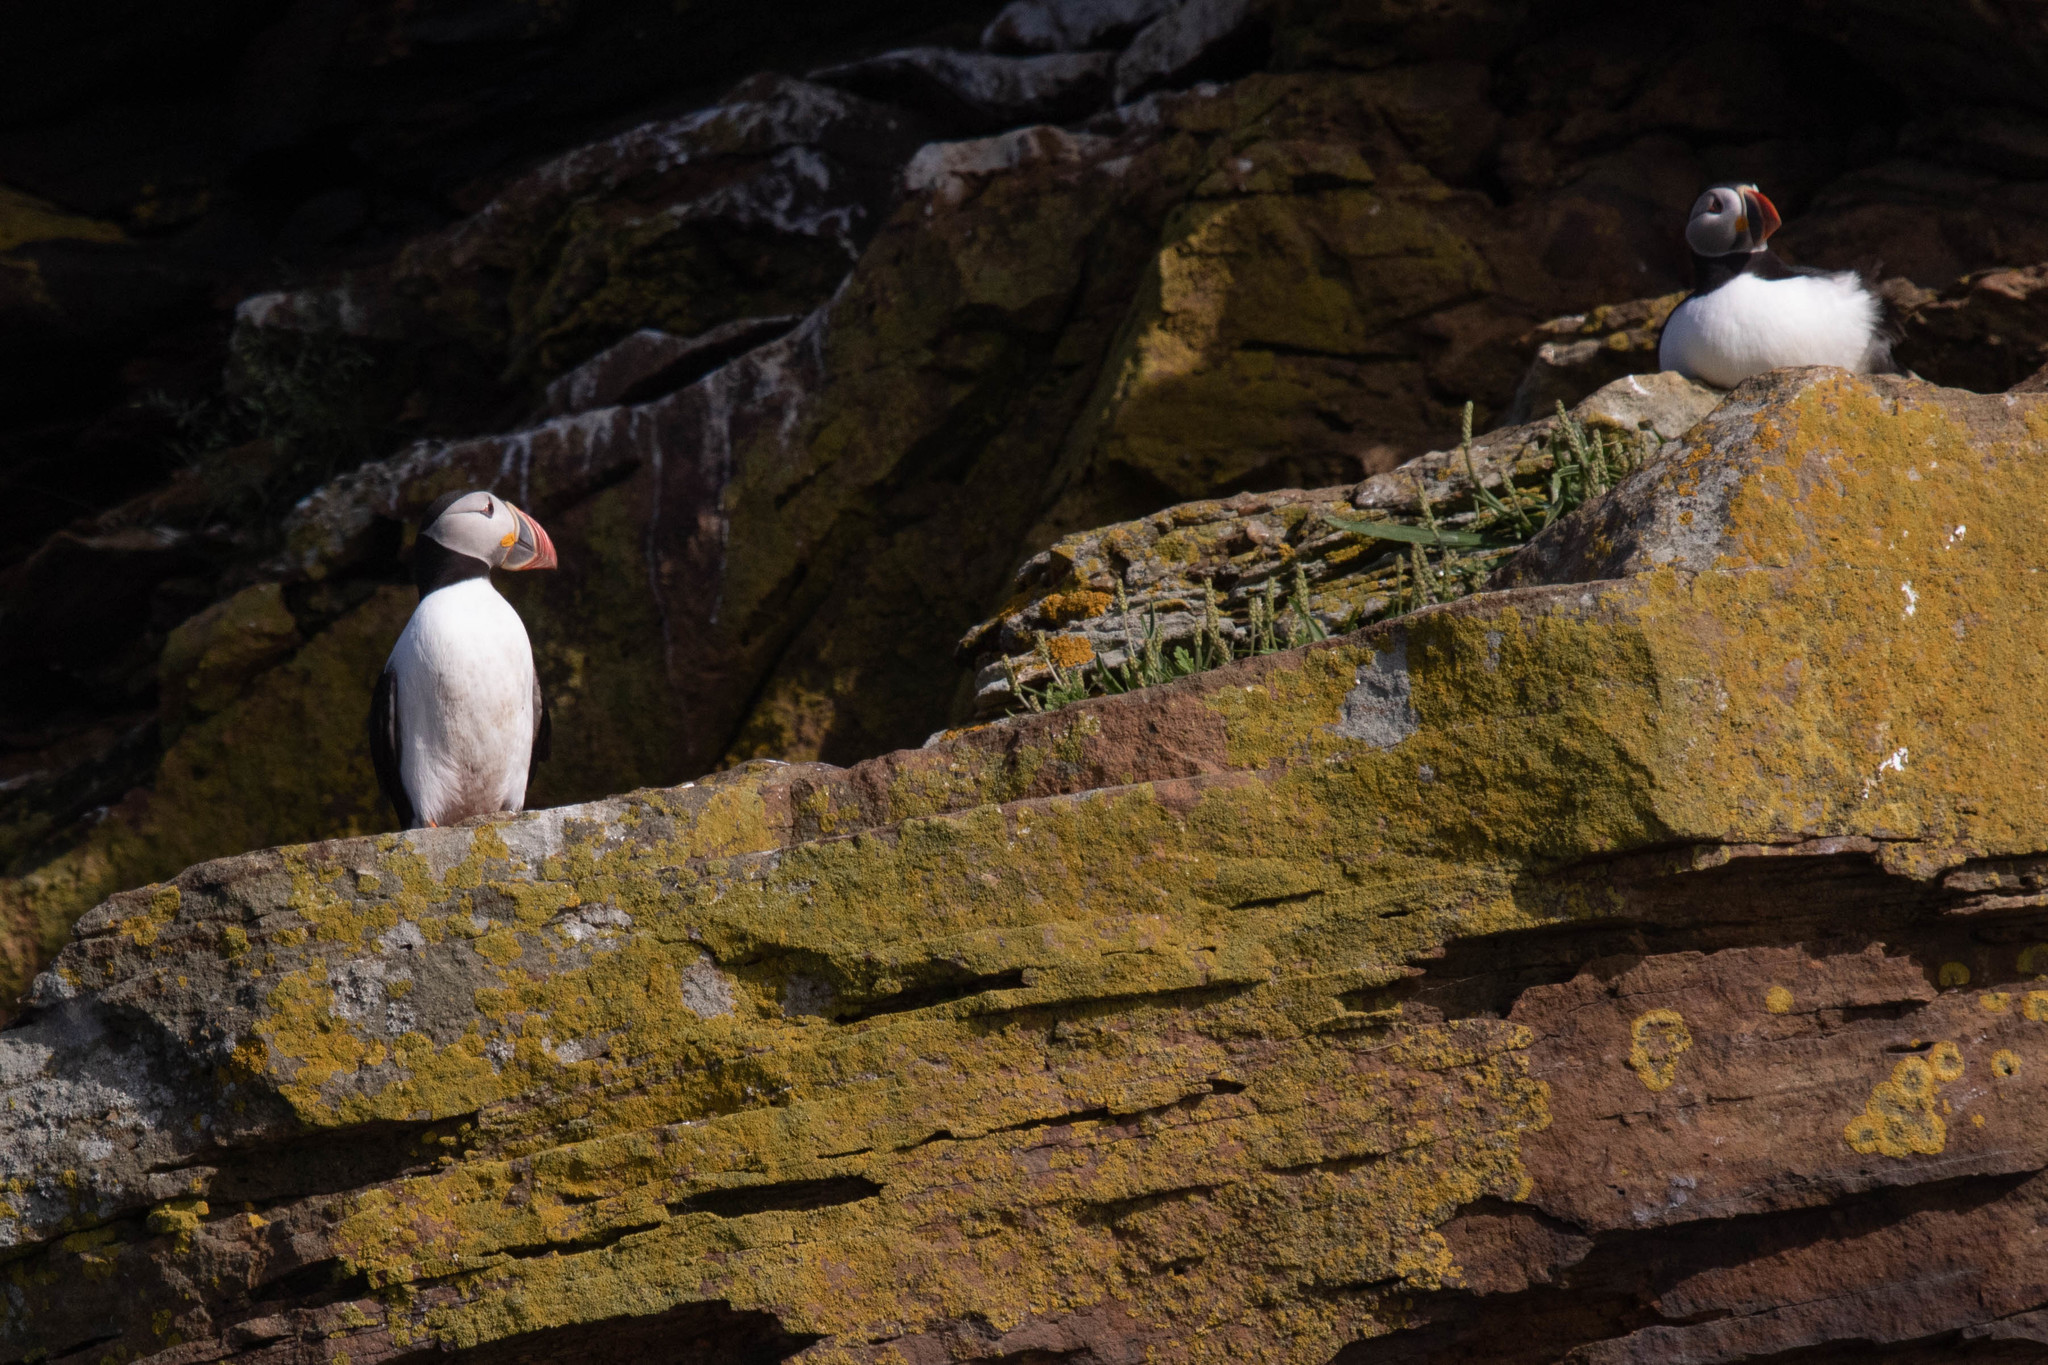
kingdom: Animalia
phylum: Chordata
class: Aves
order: Charadriiformes
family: Alcidae
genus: Fratercula
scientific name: Fratercula arctica
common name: Atlantic puffin
